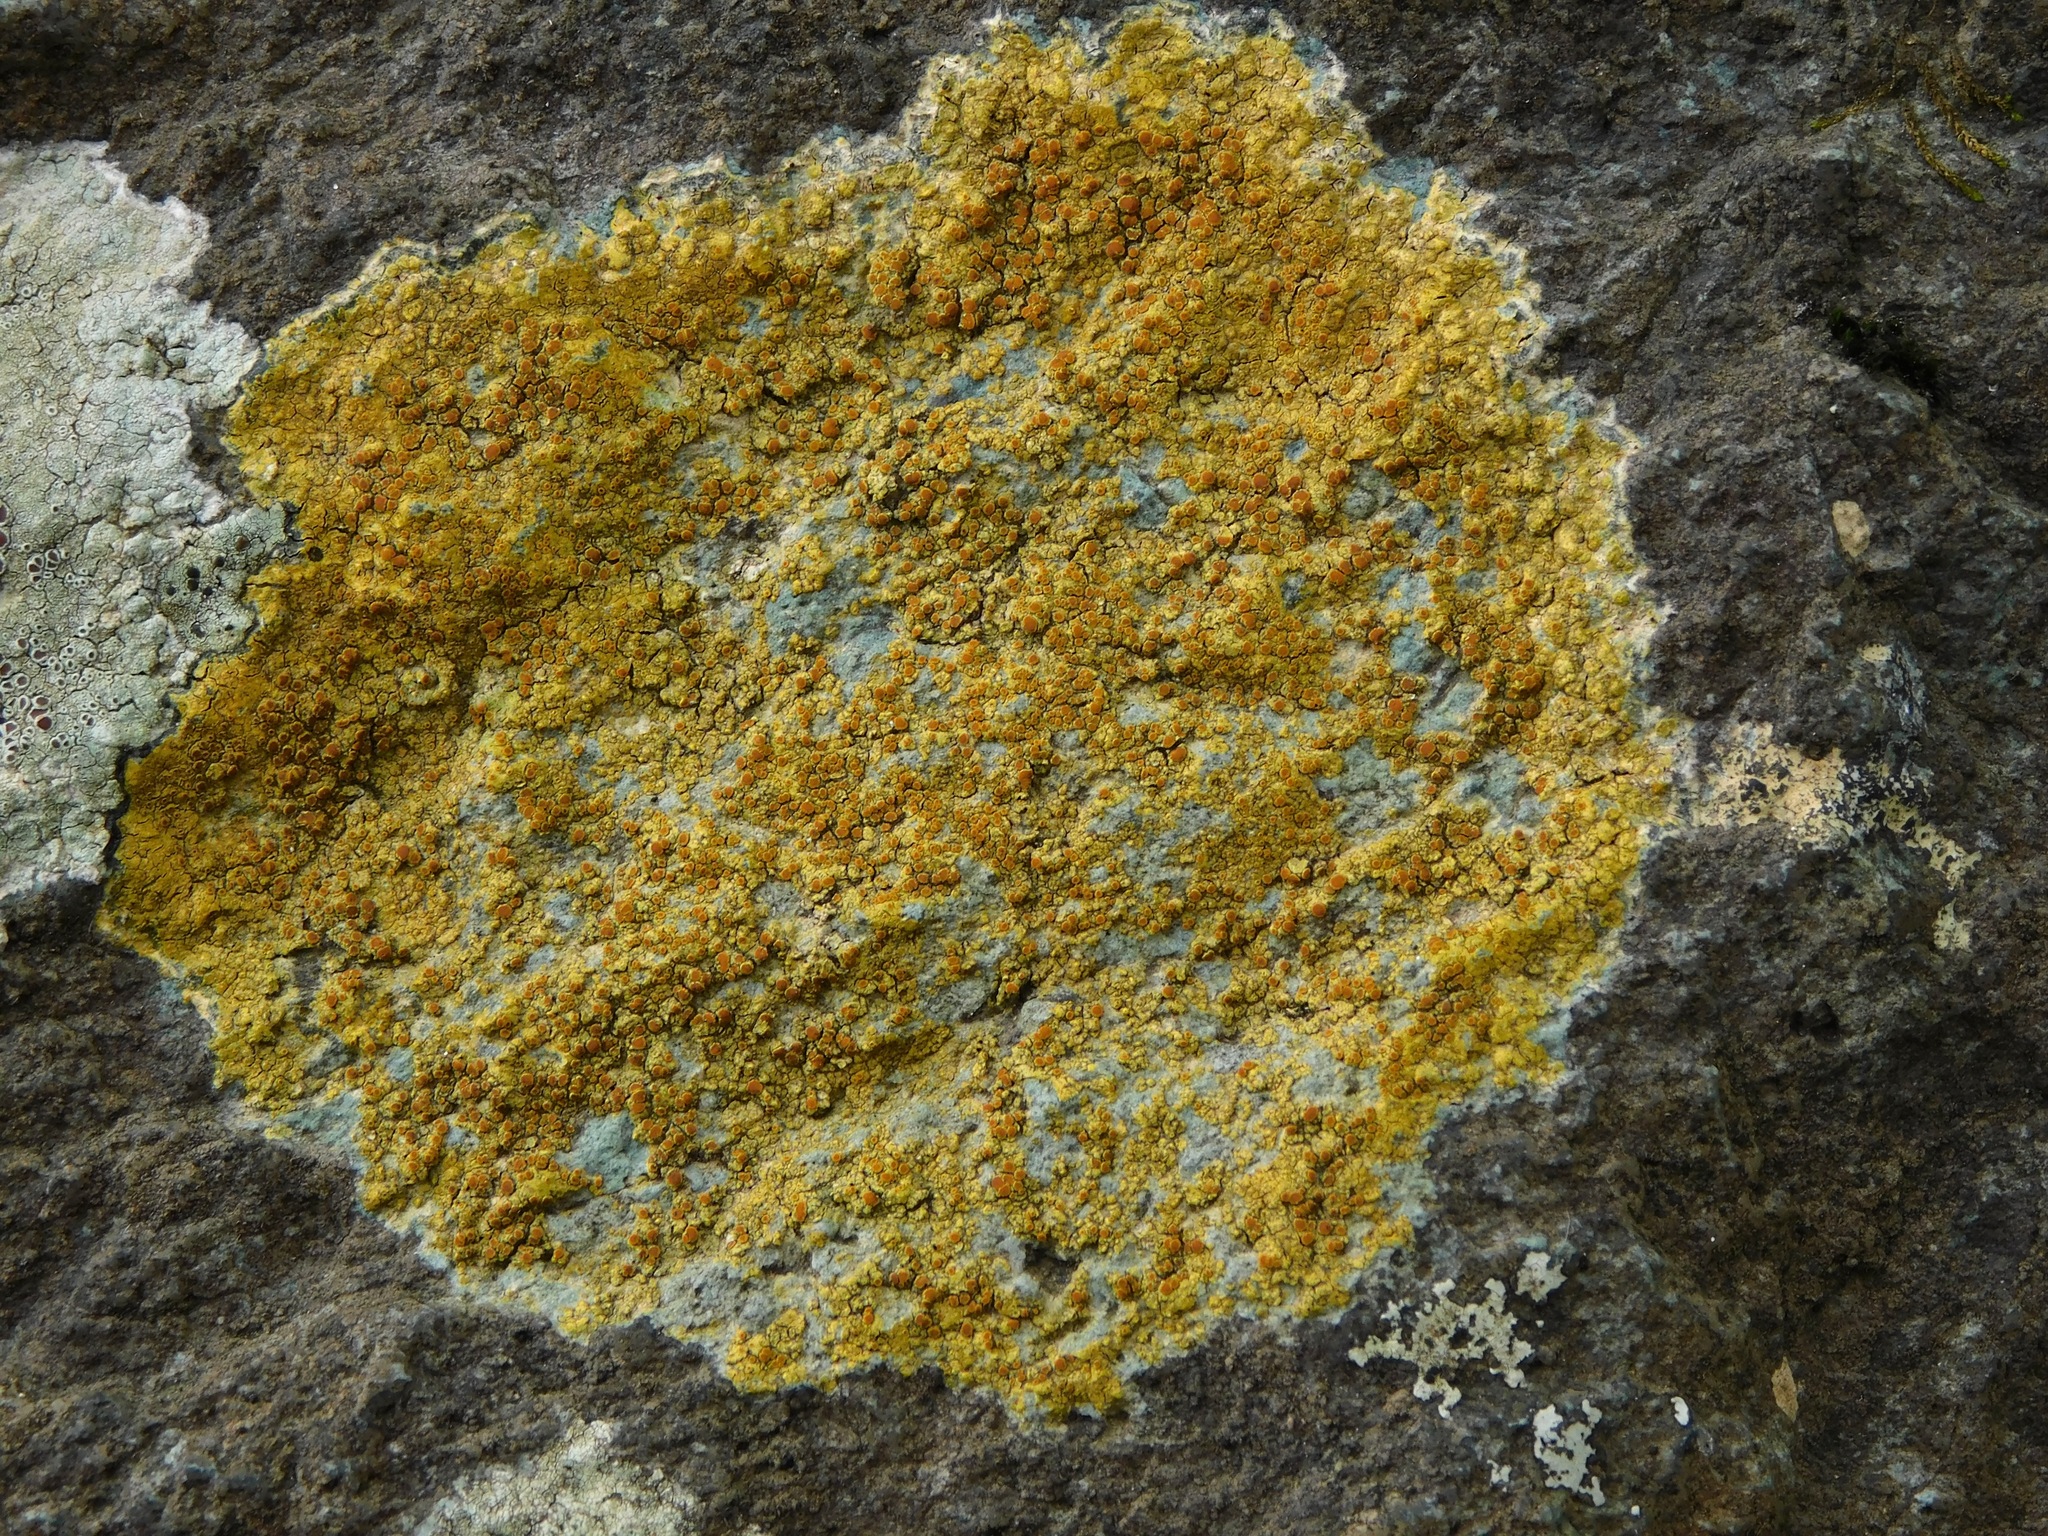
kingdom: Fungi
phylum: Ascomycota
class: Lecanoromycetes
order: Teloschistales
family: Teloschistaceae
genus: Gyalolechia
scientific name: Gyalolechia flavovirescens
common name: Sulphur firedot
